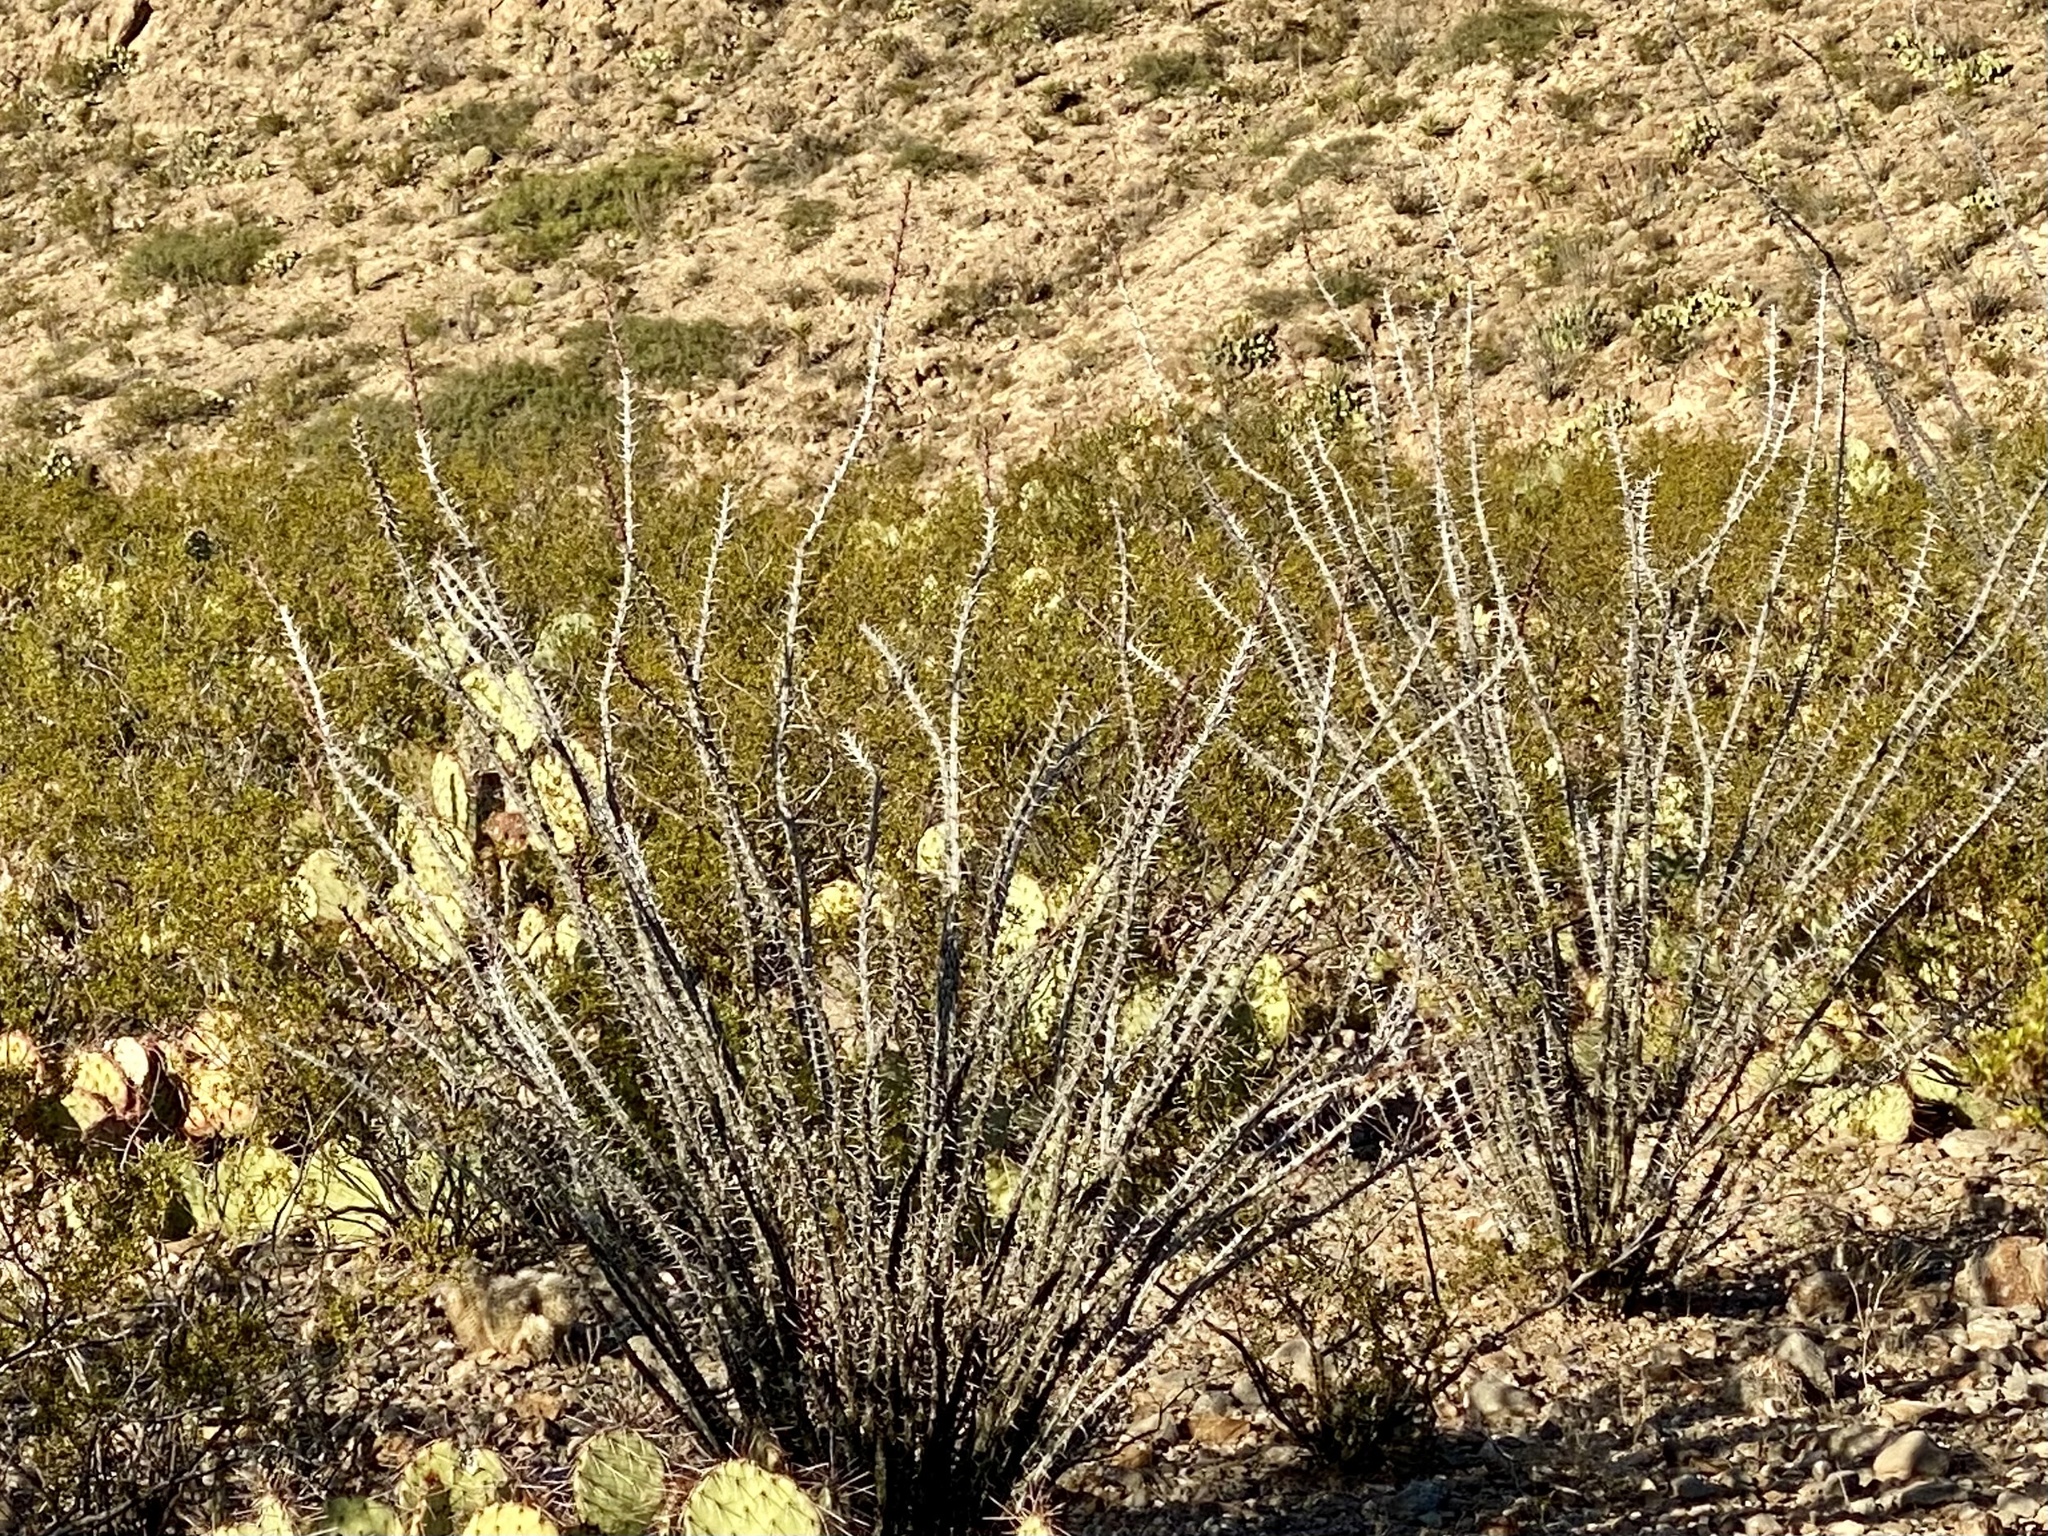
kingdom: Plantae
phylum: Tracheophyta
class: Magnoliopsida
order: Ericales
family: Fouquieriaceae
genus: Fouquieria
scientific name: Fouquieria splendens
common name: Vine-cactus
